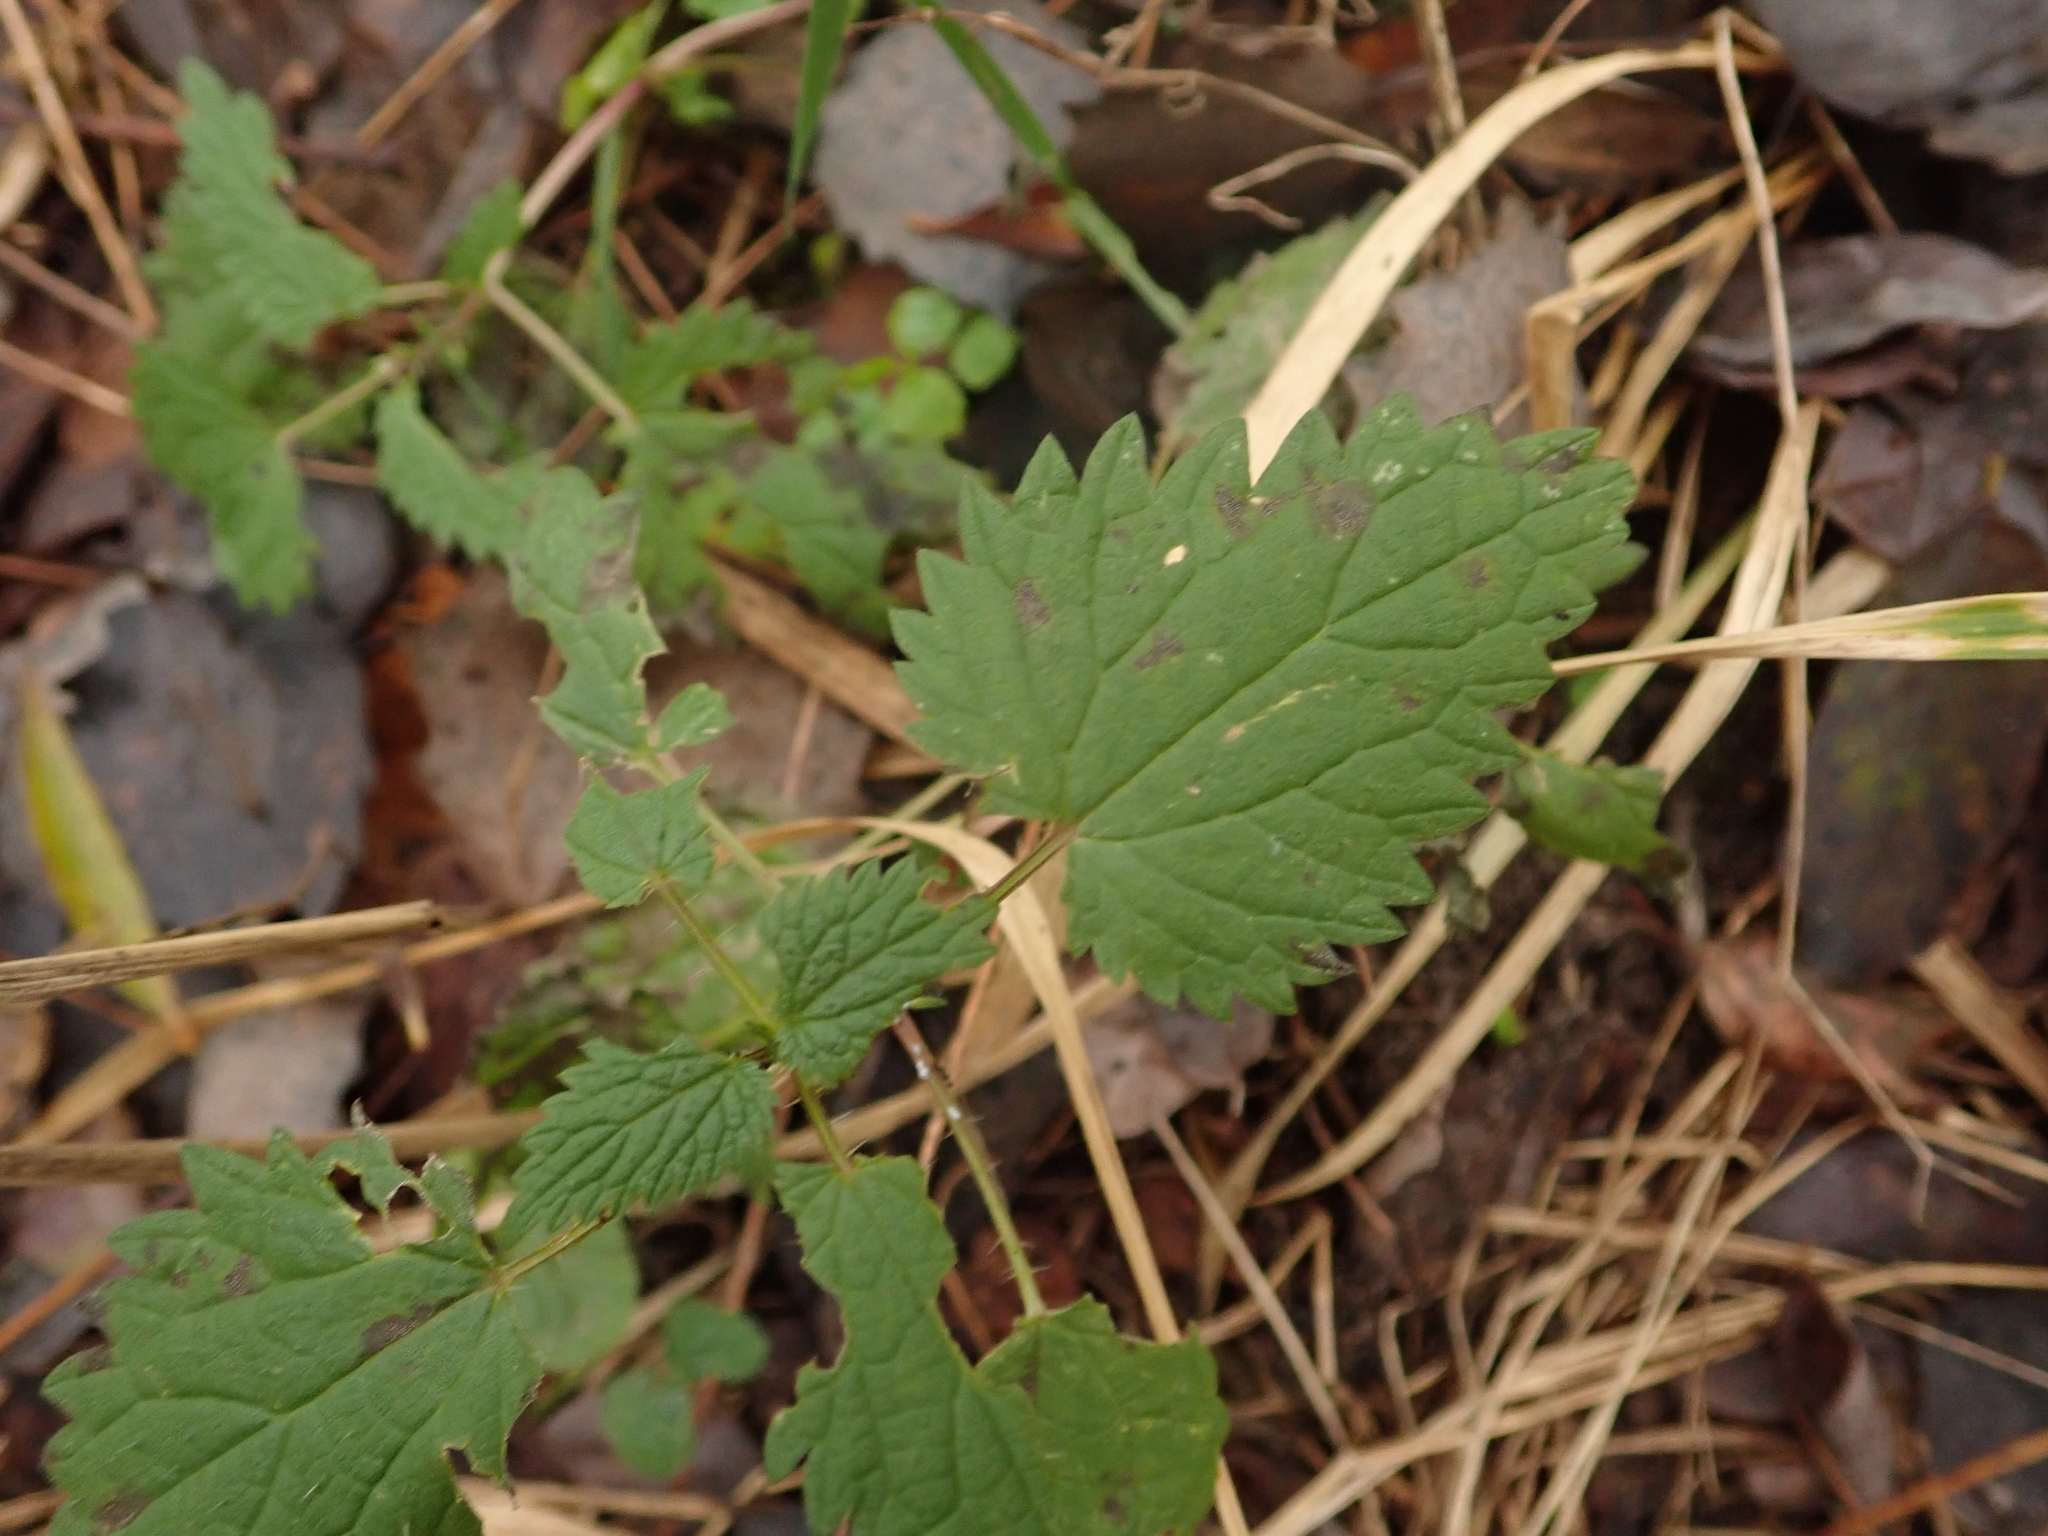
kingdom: Plantae
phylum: Tracheophyta
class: Magnoliopsida
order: Rosales
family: Urticaceae
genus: Urtica
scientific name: Urtica dioica
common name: Common nettle
